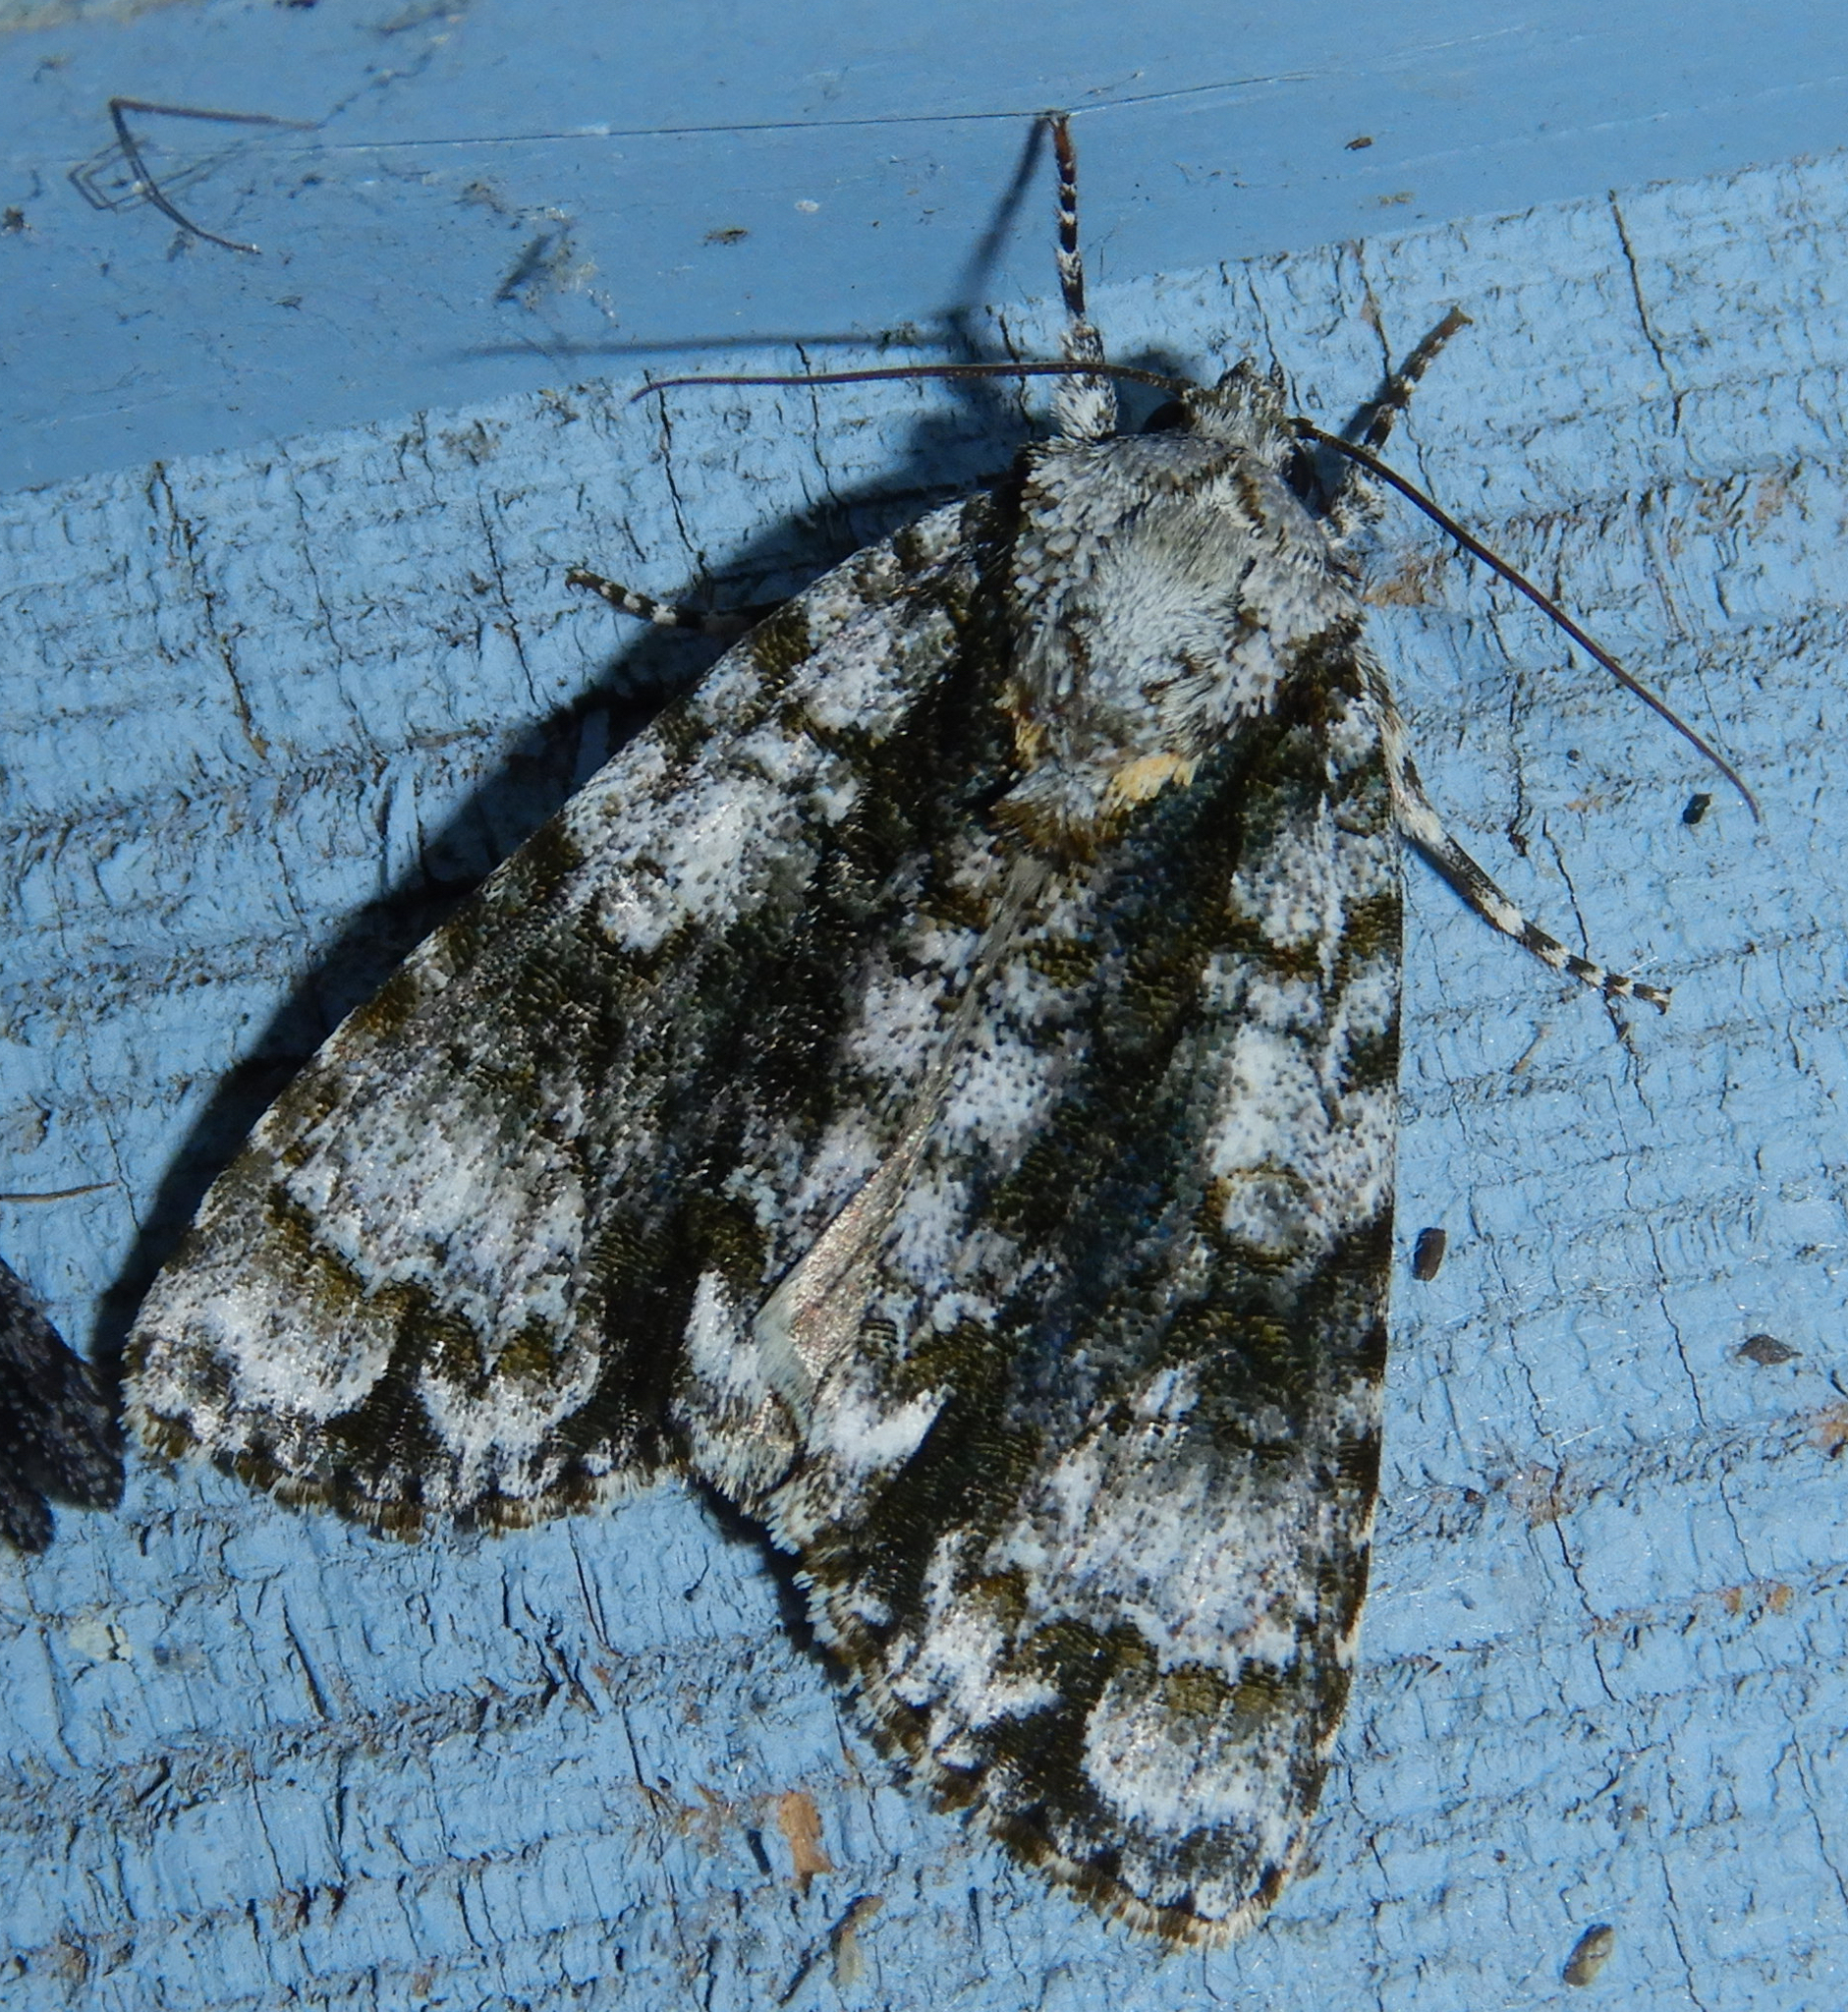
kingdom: Animalia
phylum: Arthropoda
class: Insecta
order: Lepidoptera
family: Noctuidae
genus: Acronicta
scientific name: Acronicta superans
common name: Splendid dagger
